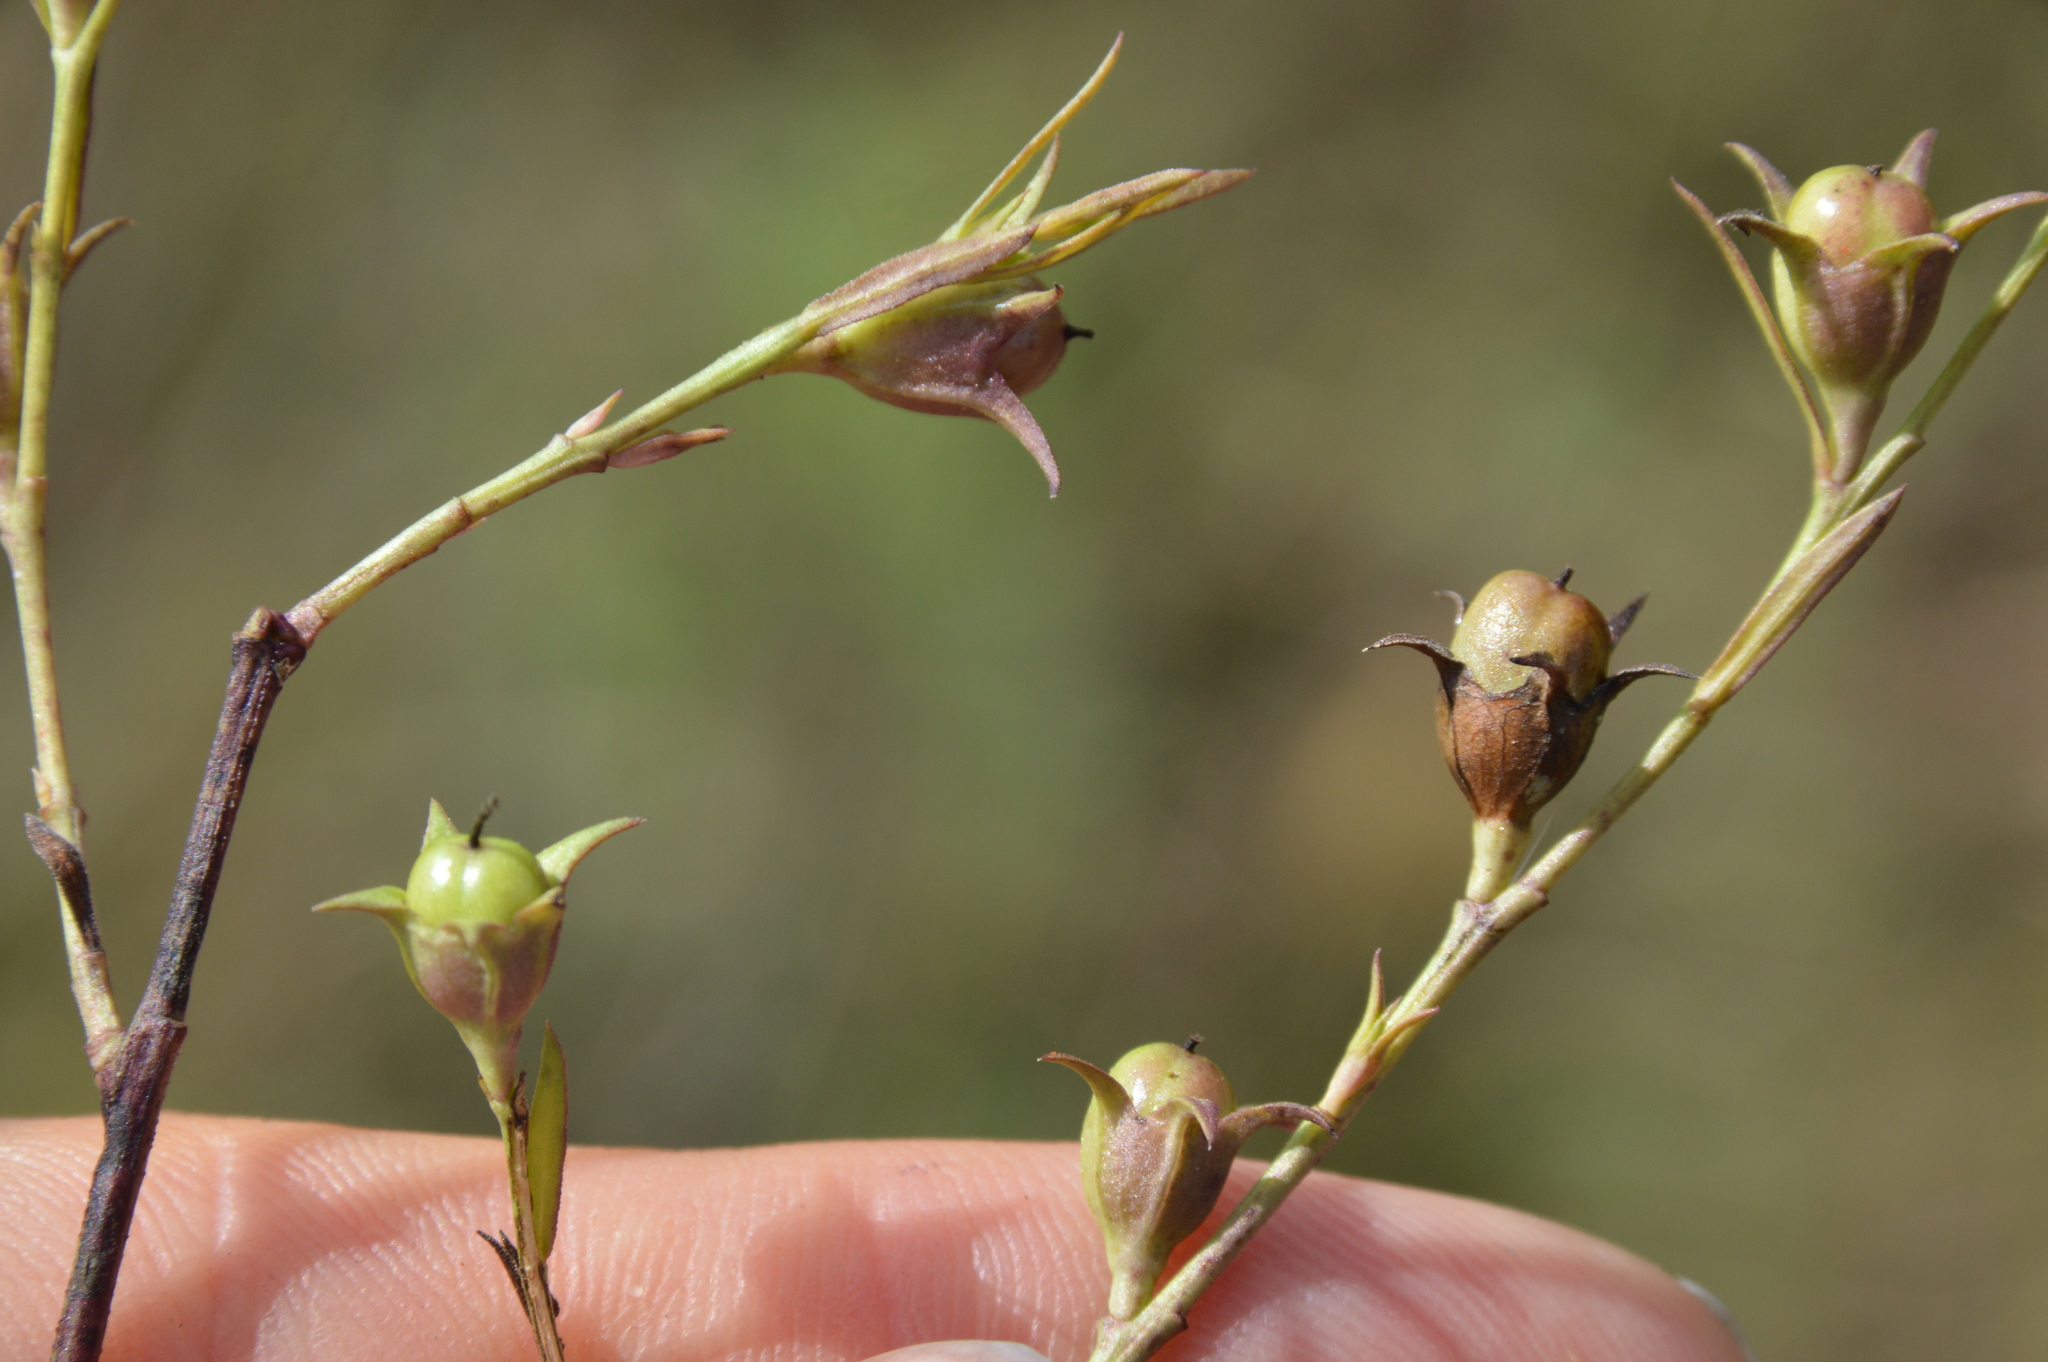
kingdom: Plantae
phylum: Tracheophyta
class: Magnoliopsida
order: Lamiales
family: Orobanchaceae
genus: Agalinis
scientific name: Agalinis heterophylla
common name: Prairie agalinis
